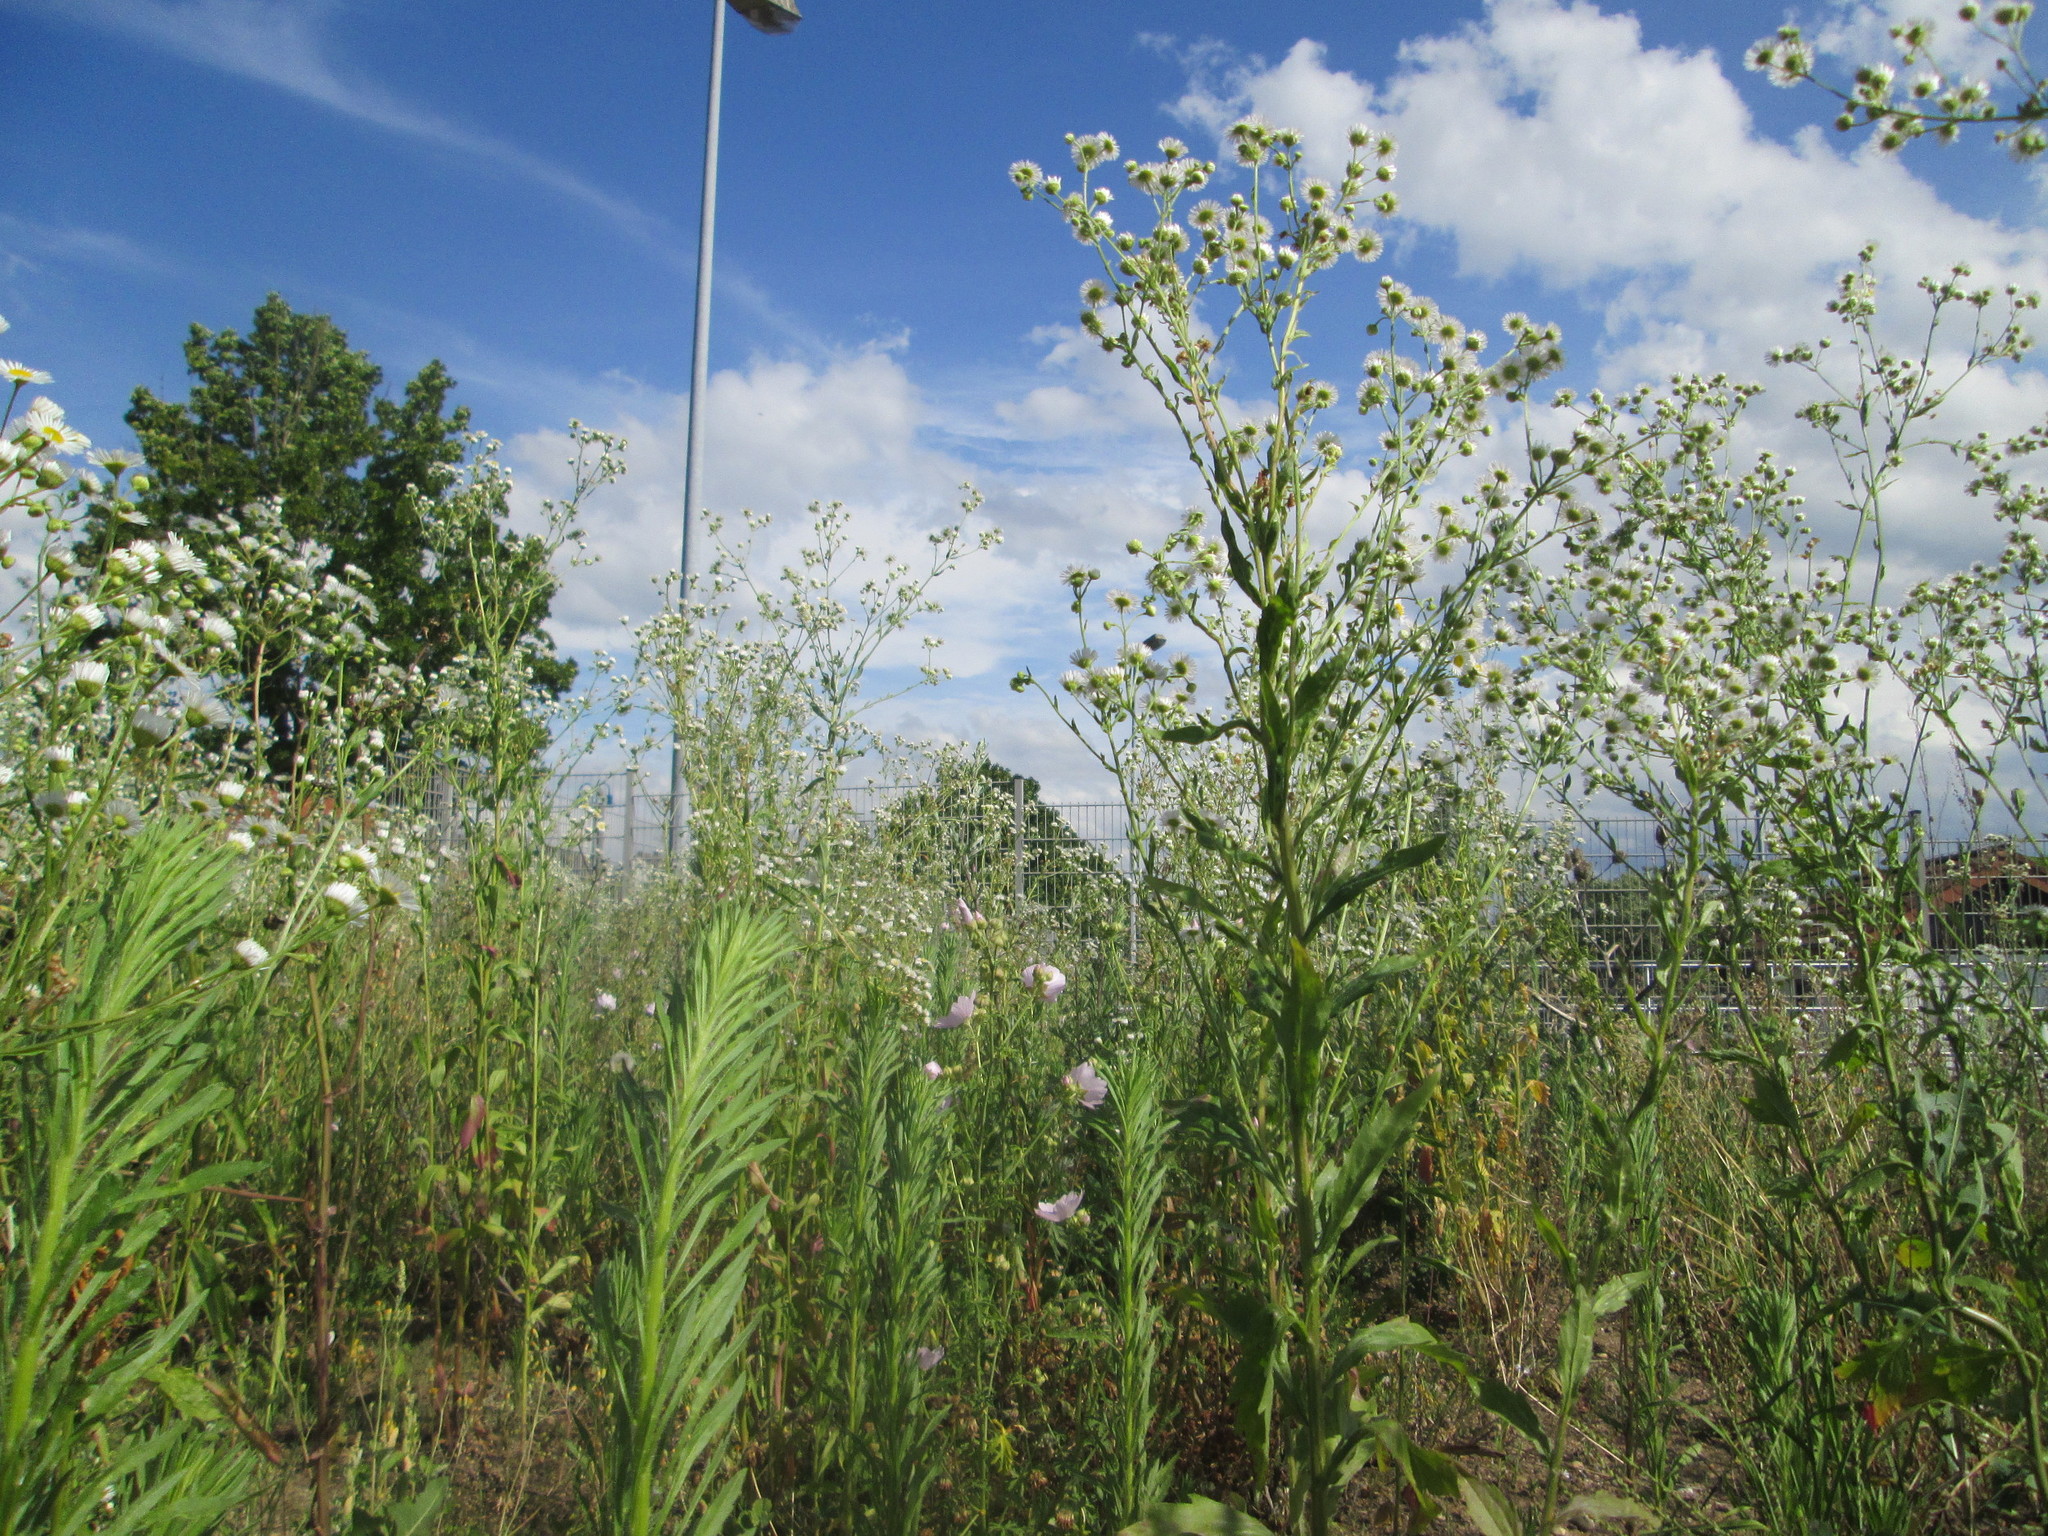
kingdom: Plantae
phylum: Tracheophyta
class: Magnoliopsida
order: Asterales
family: Asteraceae
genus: Erigeron
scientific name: Erigeron annuus
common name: Tall fleabane
